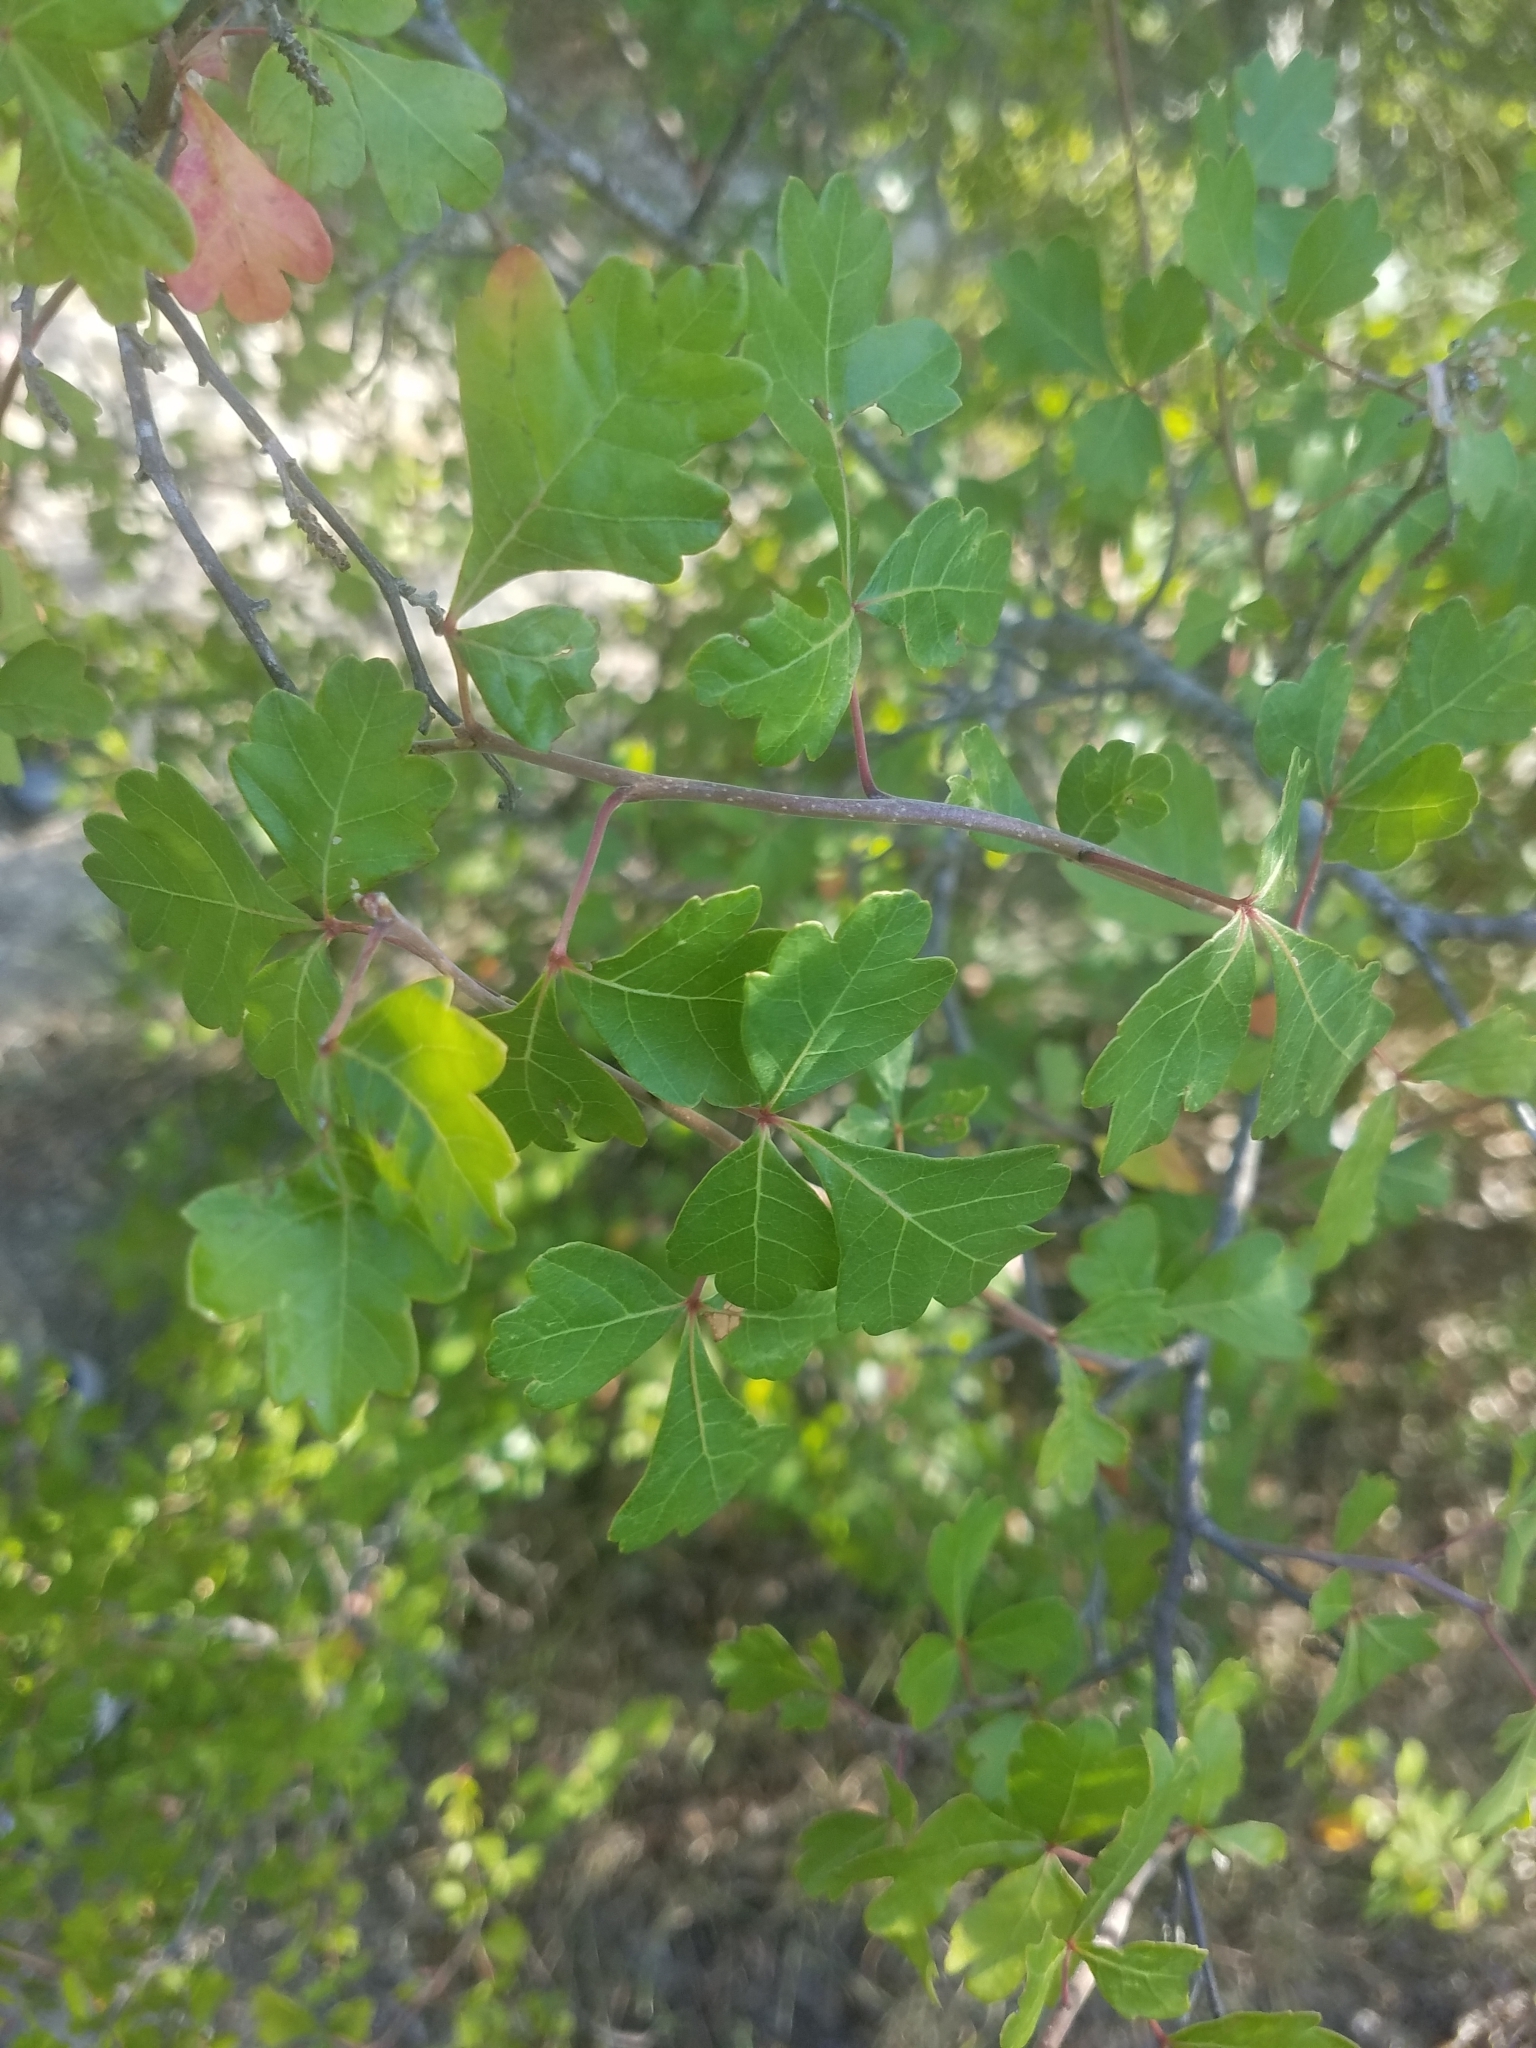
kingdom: Plantae
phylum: Tracheophyta
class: Magnoliopsida
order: Sapindales
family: Anacardiaceae
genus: Rhus
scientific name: Rhus aromatica
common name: Aromatic sumac
